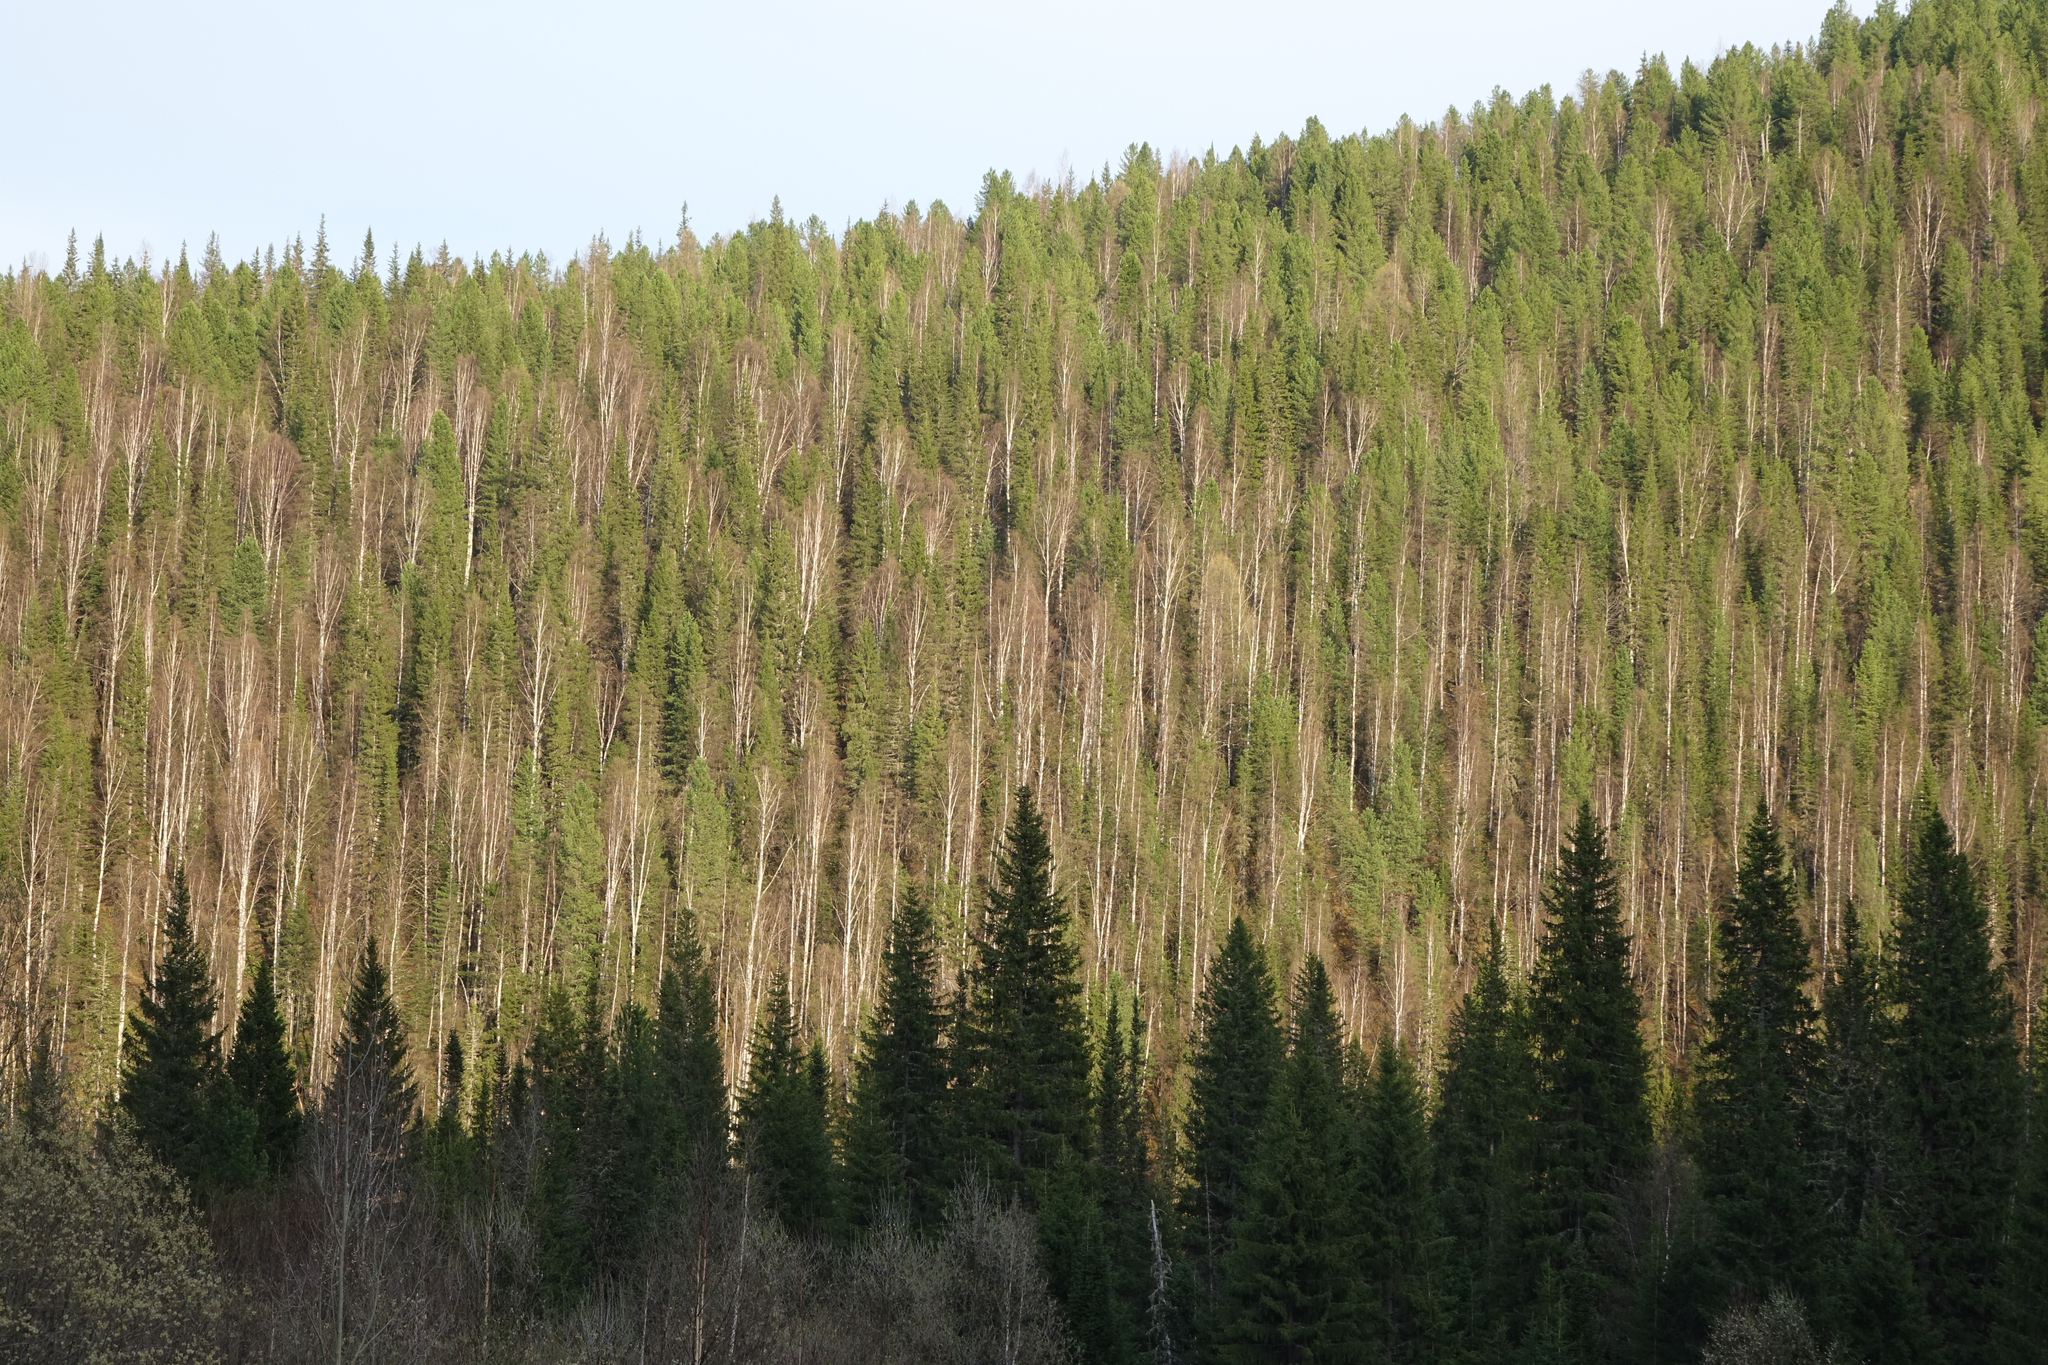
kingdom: Plantae
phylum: Tracheophyta
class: Pinopsida
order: Pinales
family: Pinaceae
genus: Pinus
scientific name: Pinus sibirica
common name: Siberian pine
